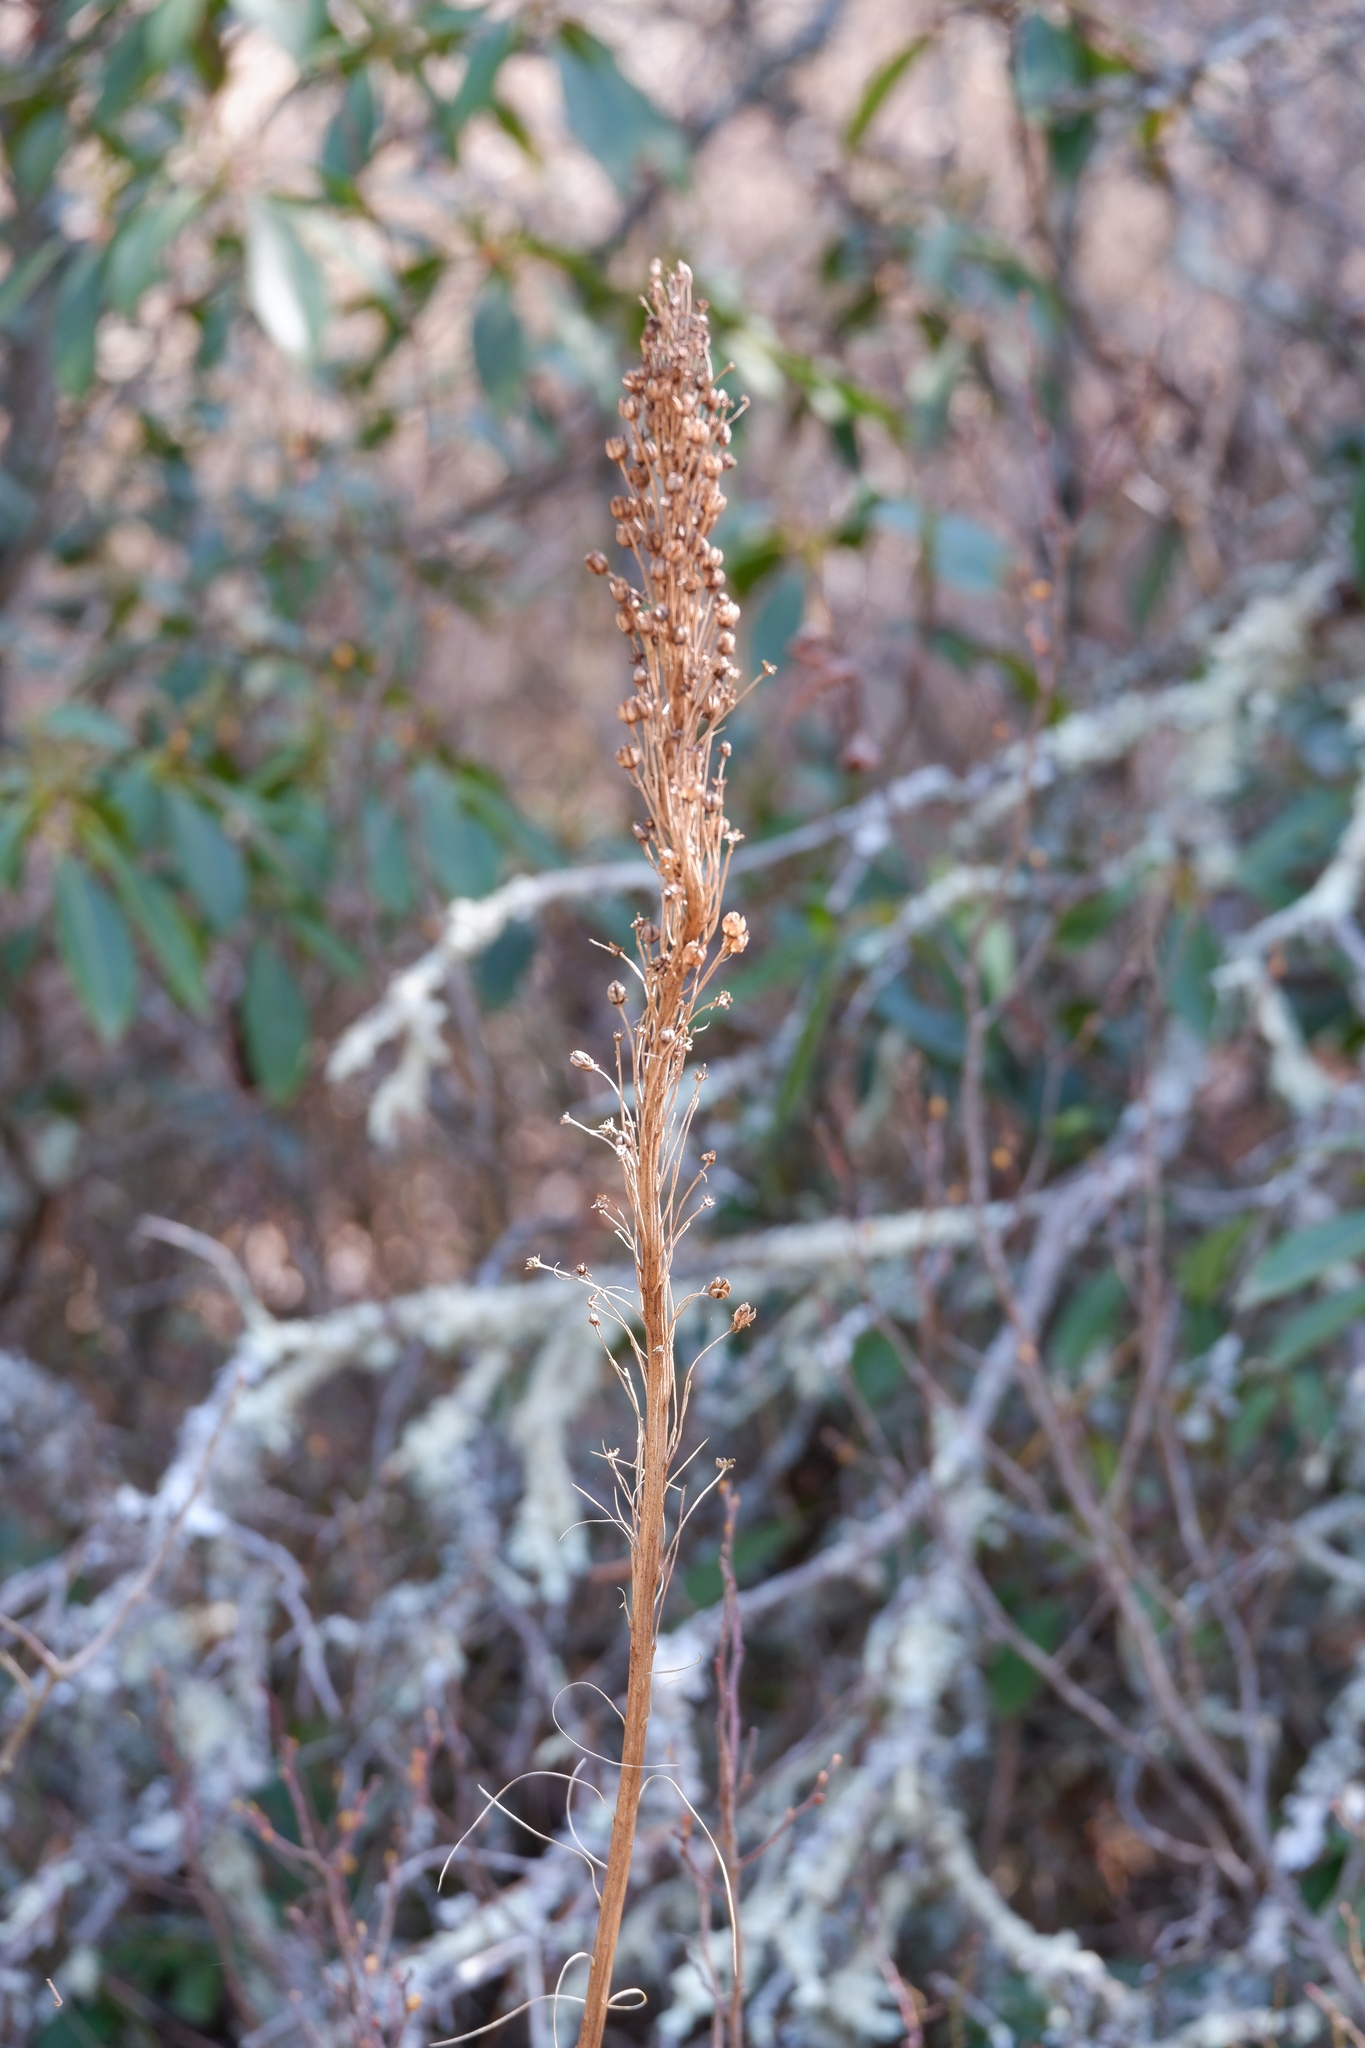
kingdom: Plantae
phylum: Tracheophyta
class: Liliopsida
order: Liliales
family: Melanthiaceae
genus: Xerophyllum
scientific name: Xerophyllum asphodeloides
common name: Mountain-asphodel
